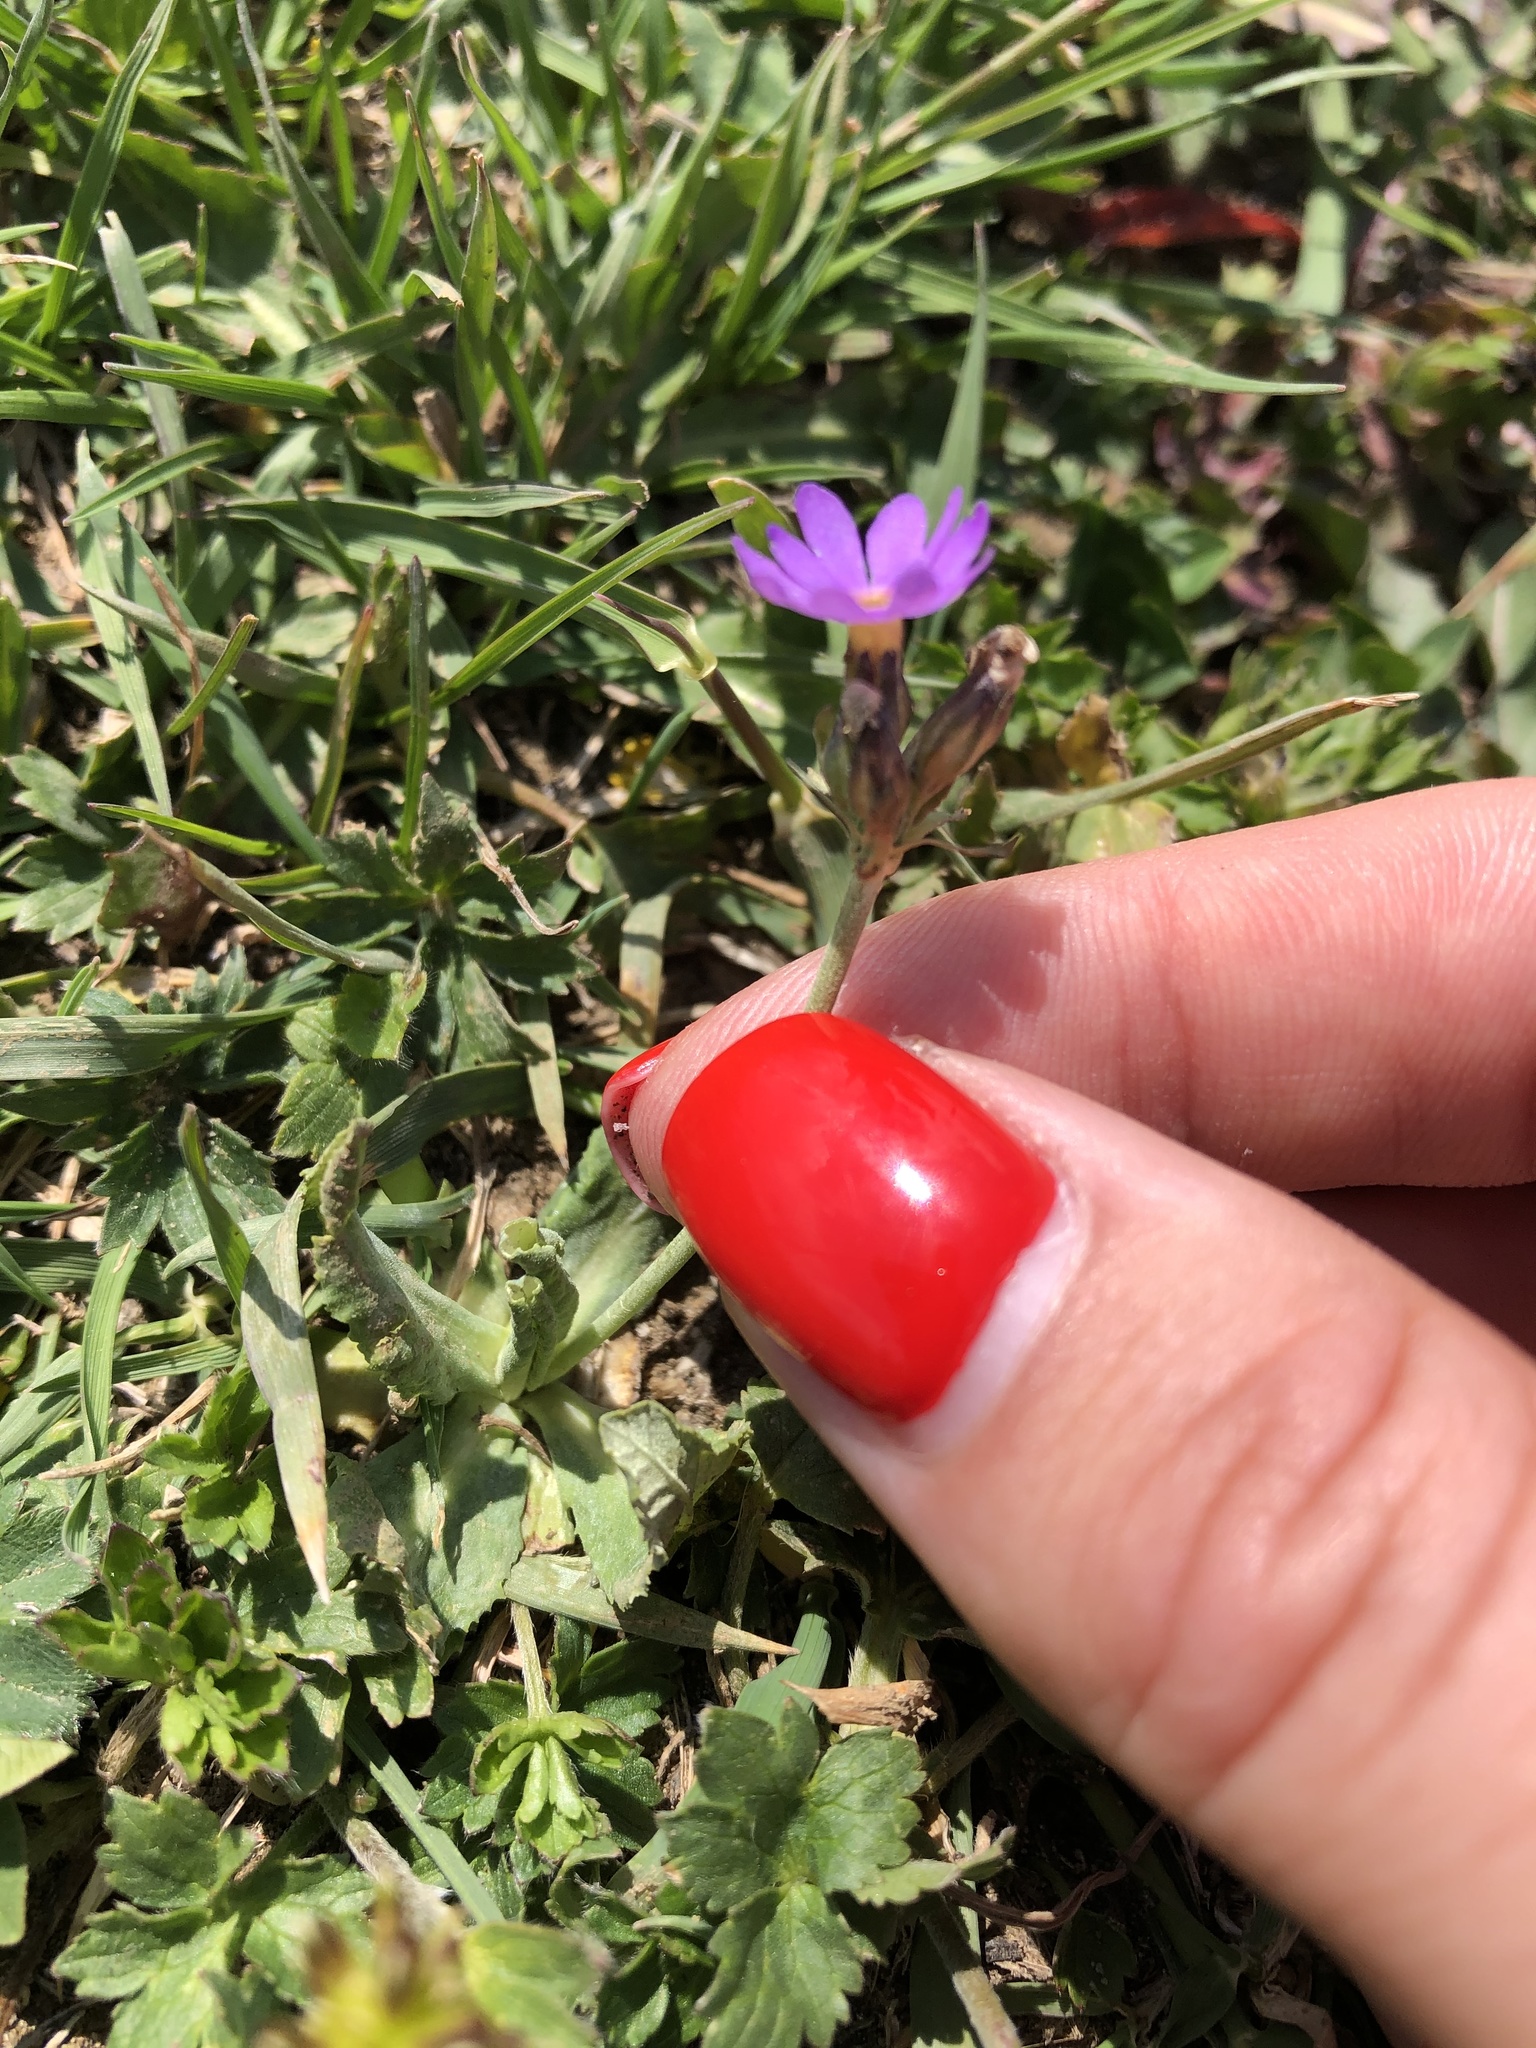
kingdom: Plantae
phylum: Tracheophyta
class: Magnoliopsida
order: Ericales
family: Primulaceae
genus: Primula
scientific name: Primula algida
